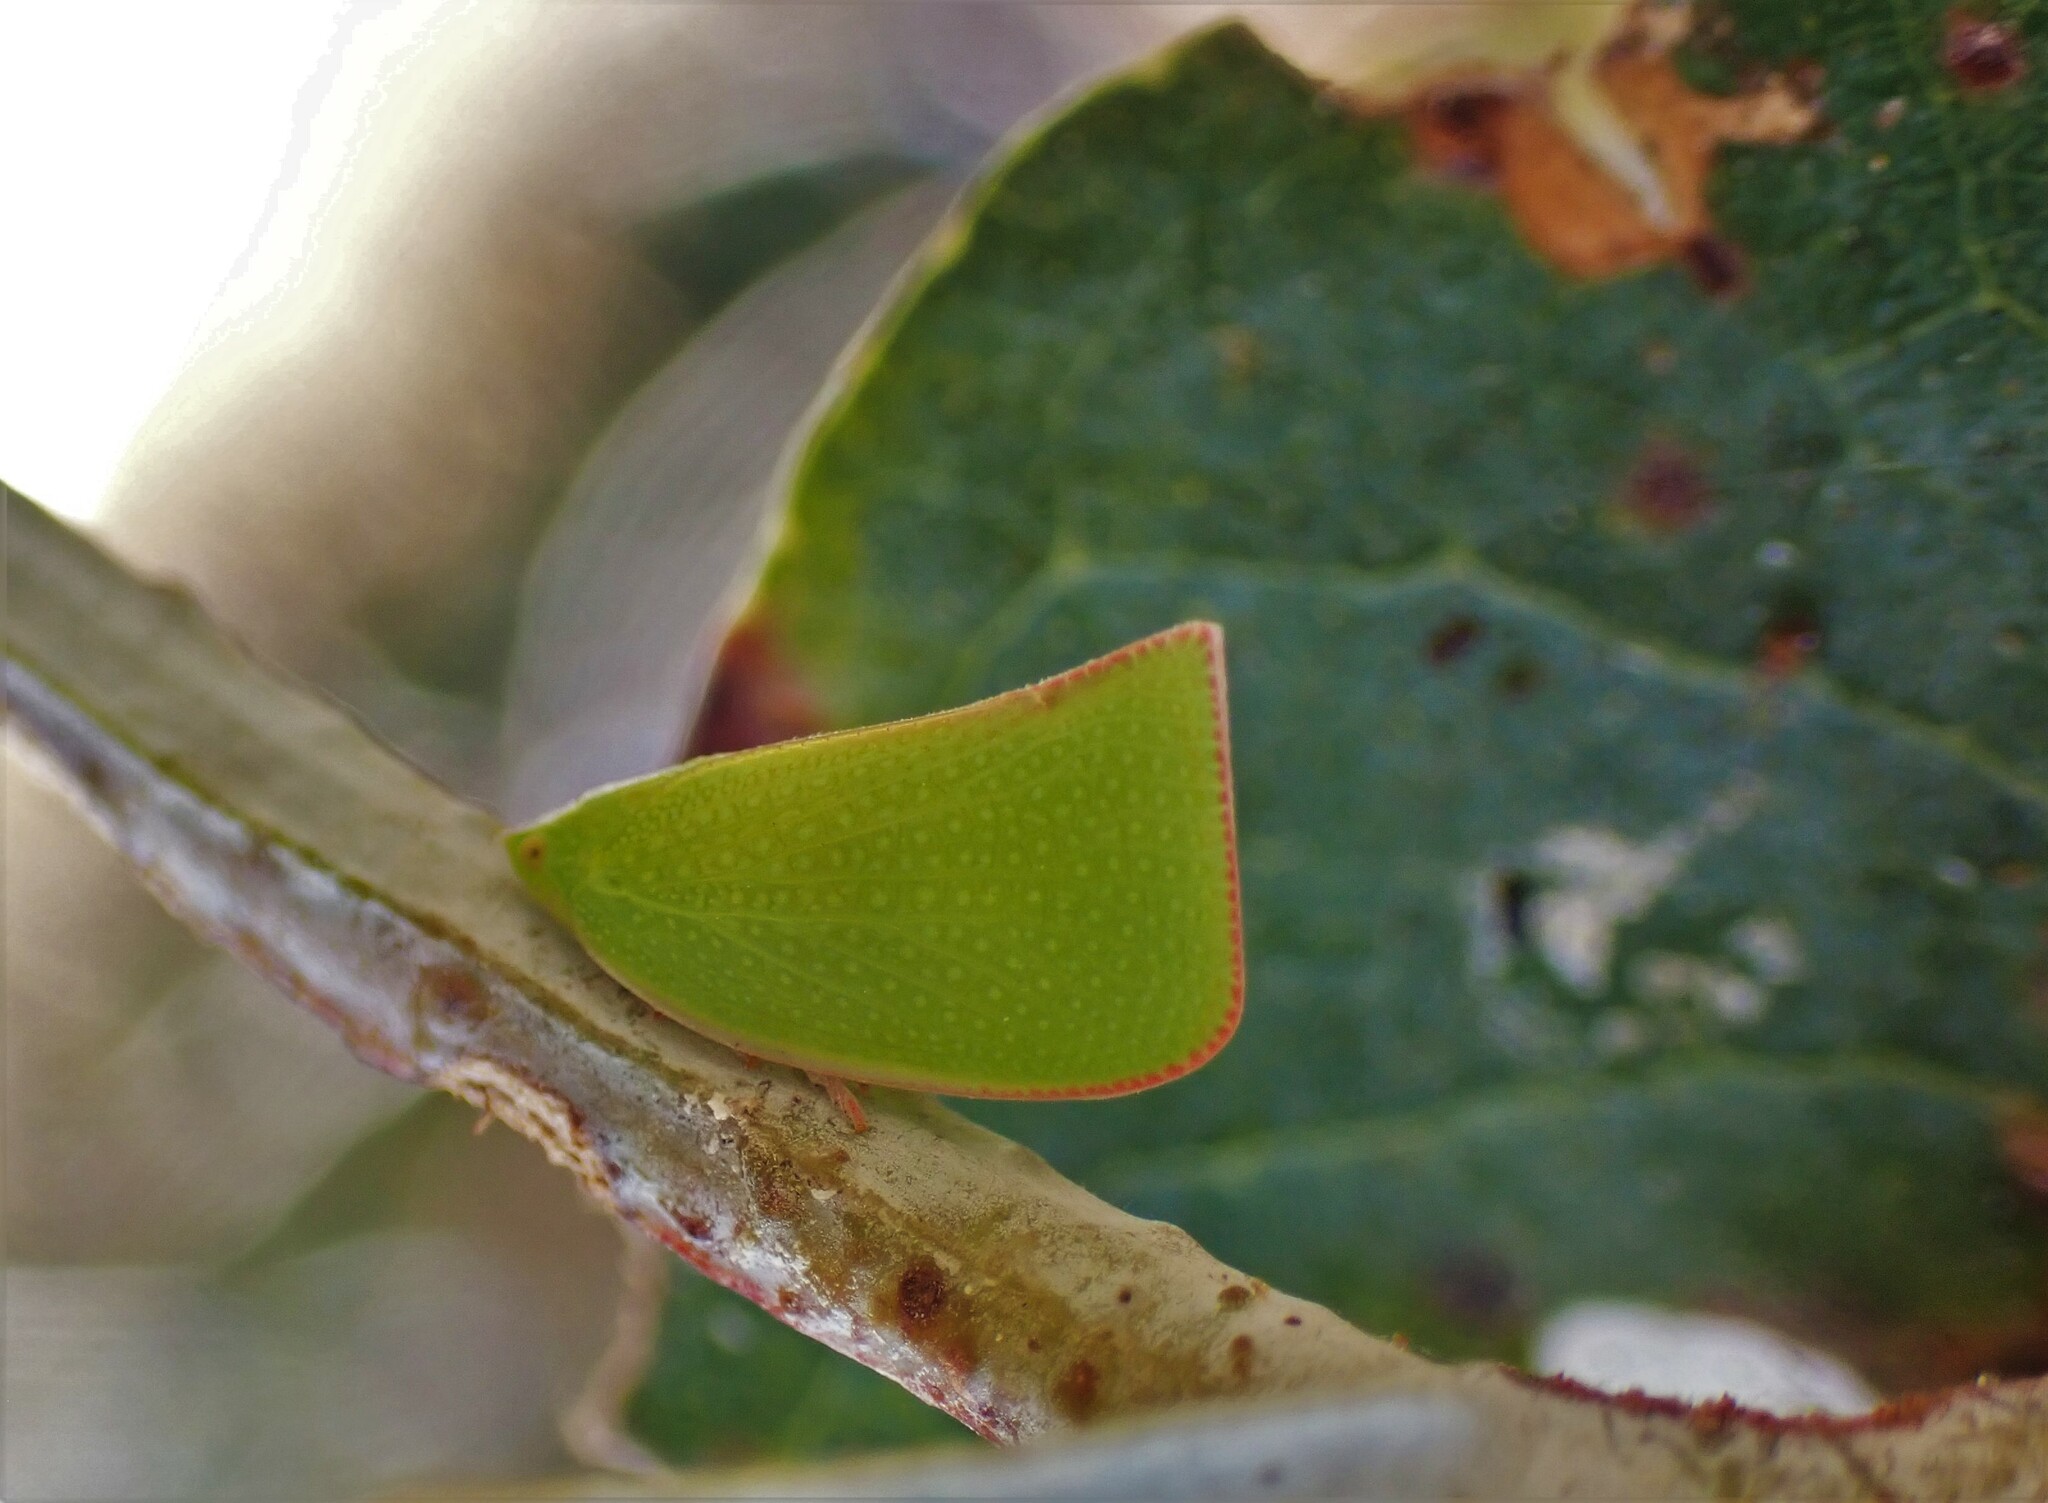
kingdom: Animalia
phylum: Arthropoda
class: Insecta
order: Hemiptera
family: Flatidae
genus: Siphanta
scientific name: Siphanta acuta
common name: Torpedo bug
